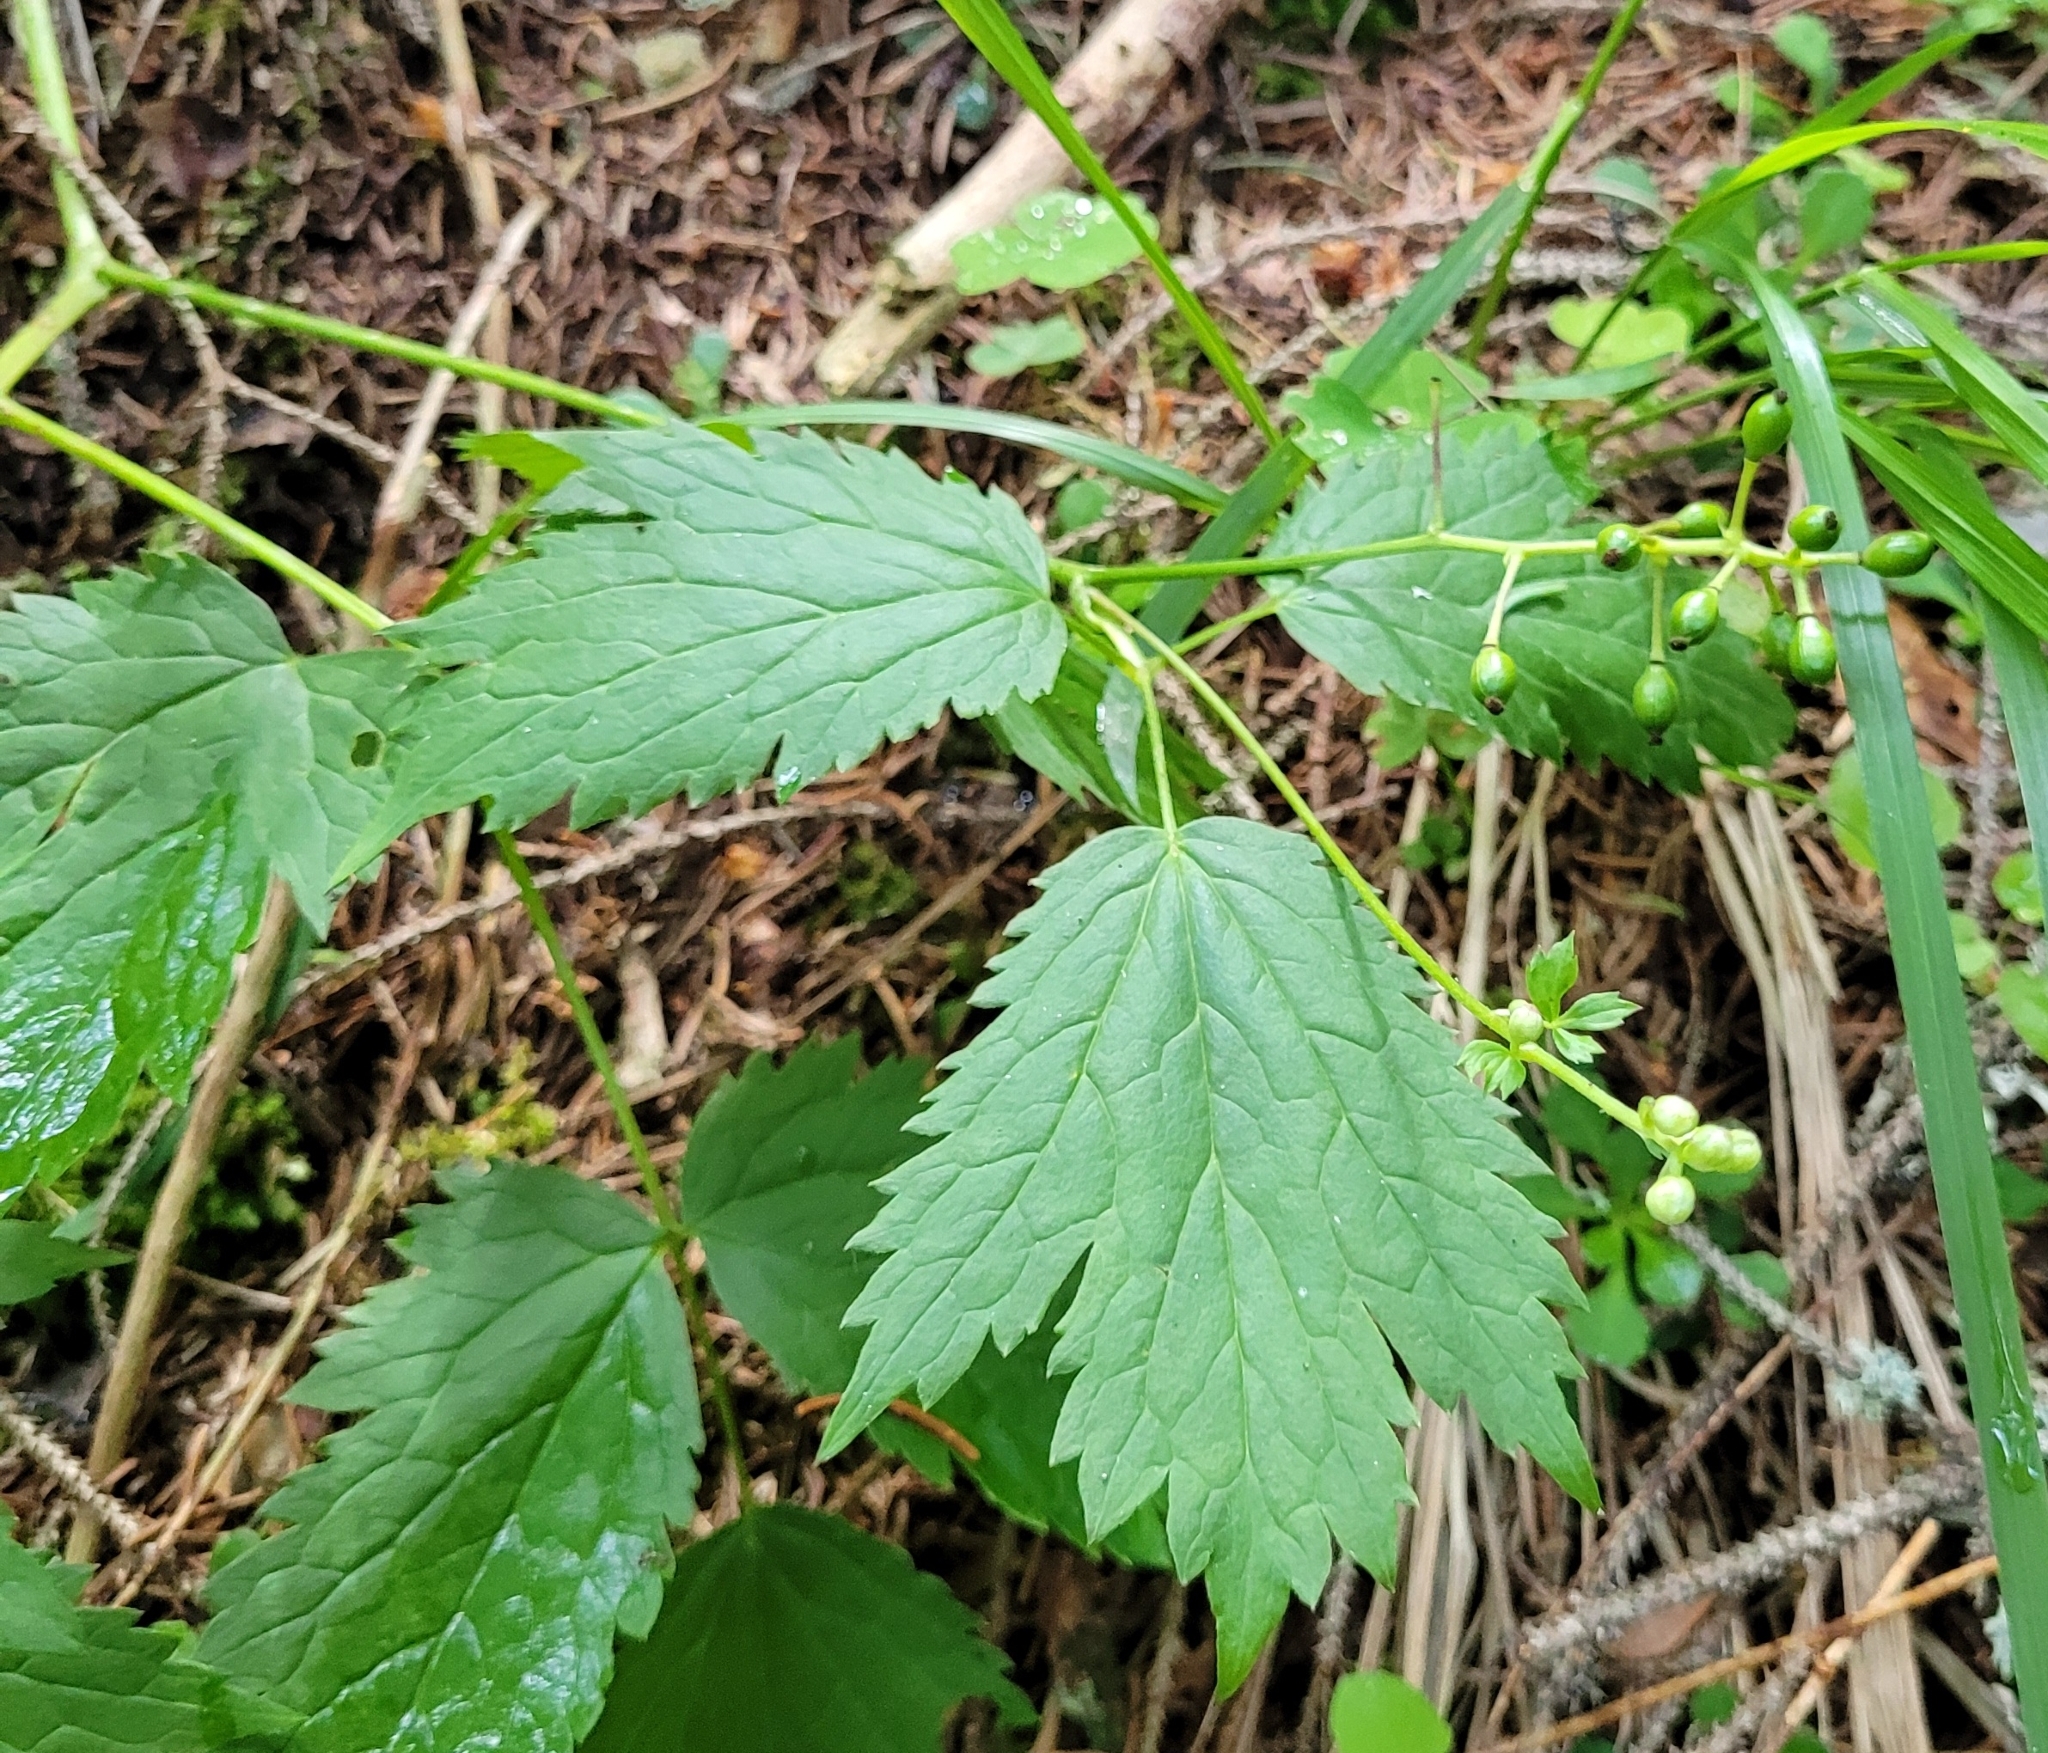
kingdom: Plantae
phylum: Tracheophyta
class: Magnoliopsida
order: Ranunculales
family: Ranunculaceae
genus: Actaea
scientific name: Actaea spicata
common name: Baneberry
